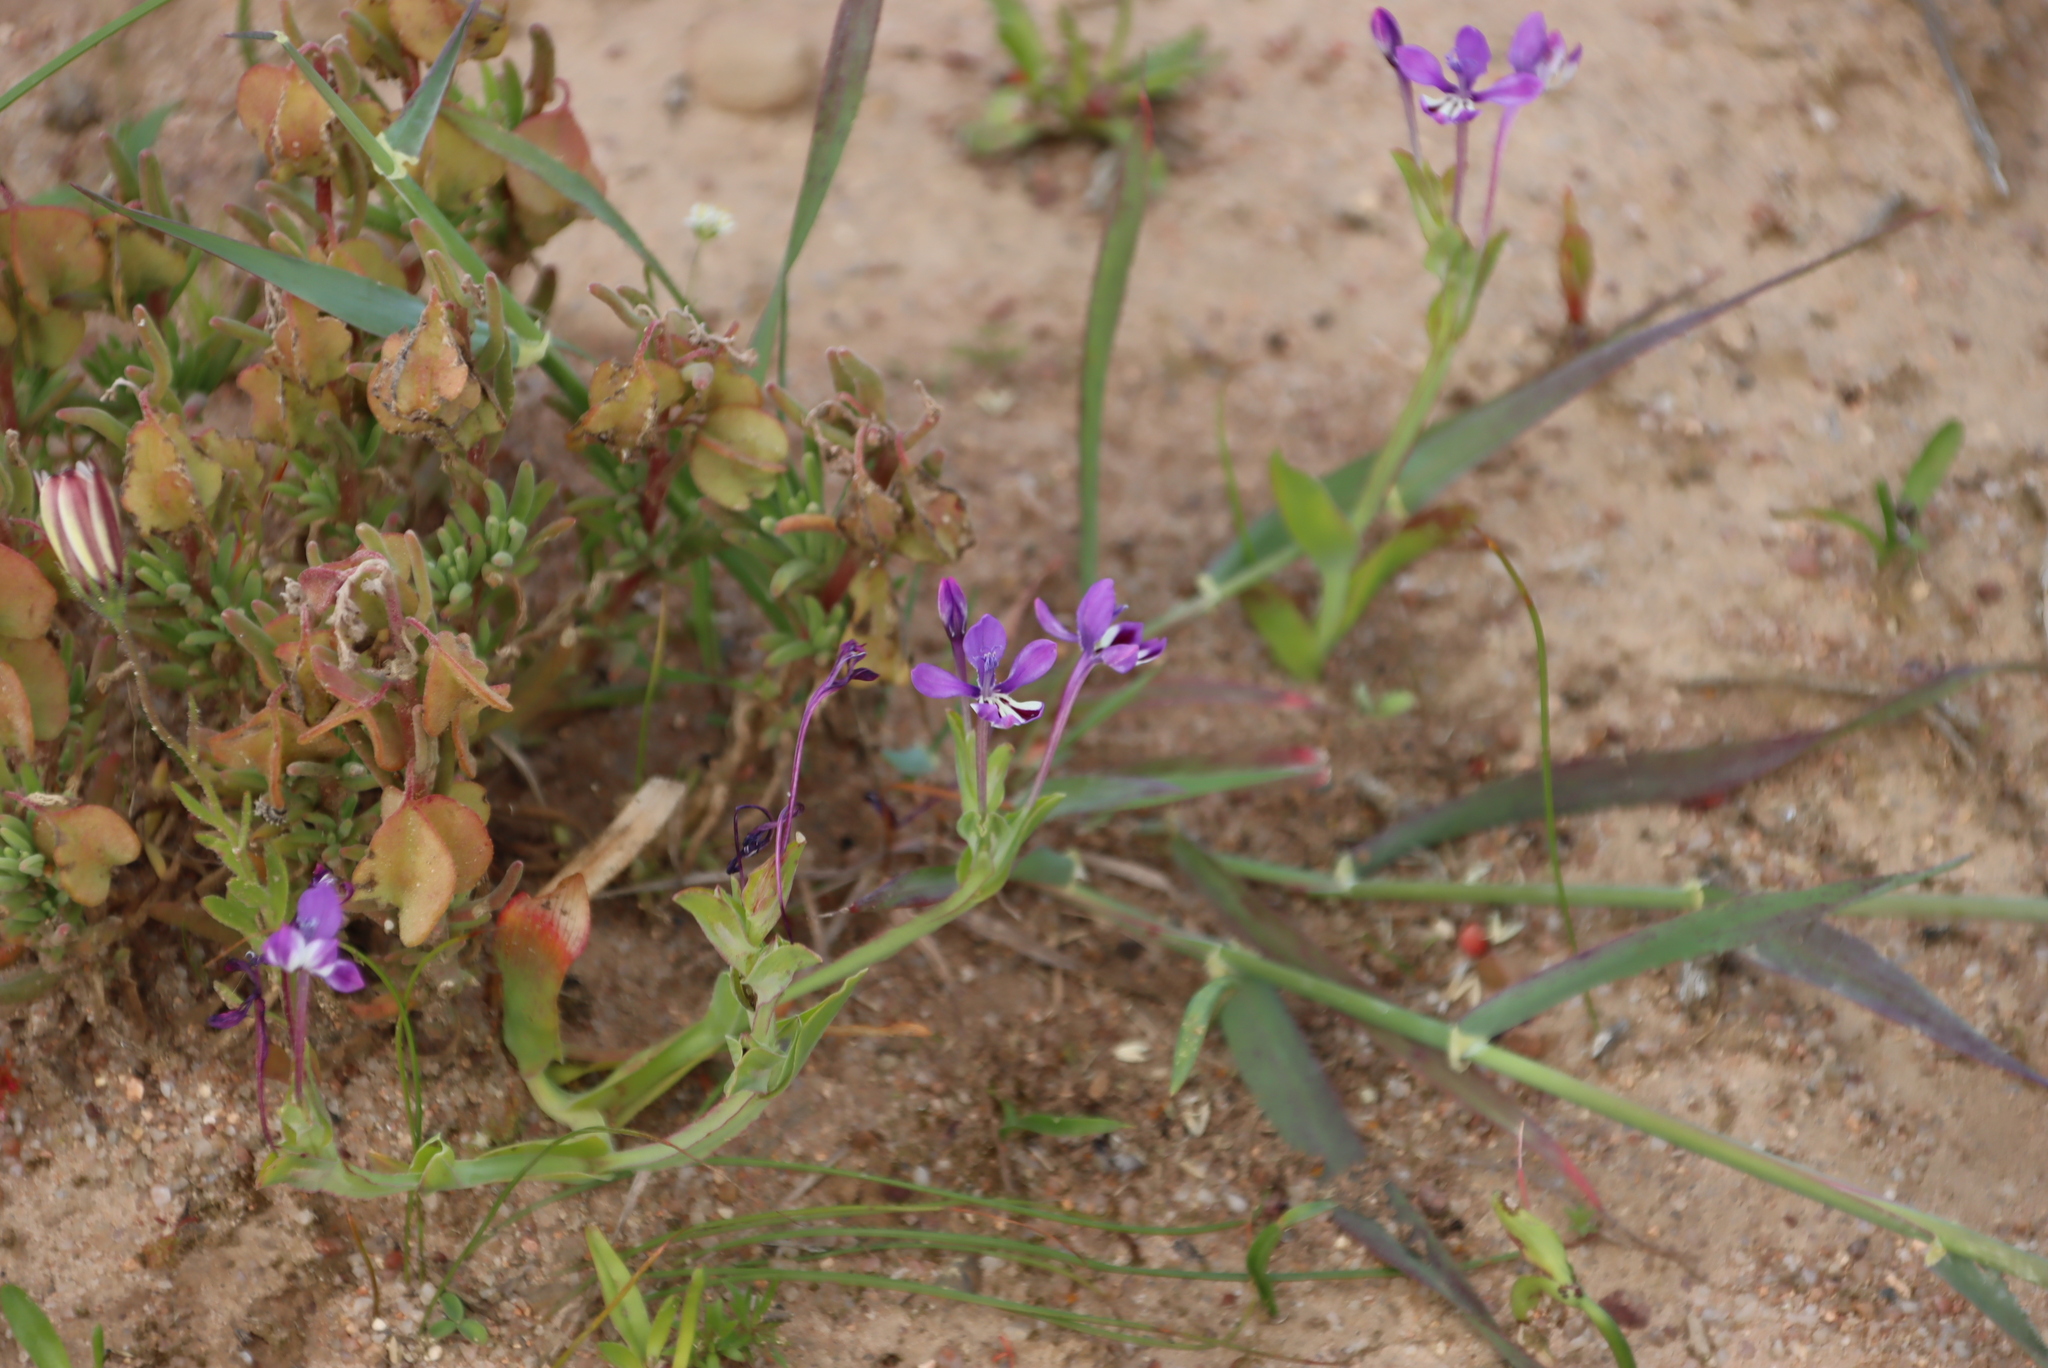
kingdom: Plantae
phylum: Tracheophyta
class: Liliopsida
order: Asparagales
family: Iridaceae
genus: Lapeirousia
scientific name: Lapeirousia jacquinii
